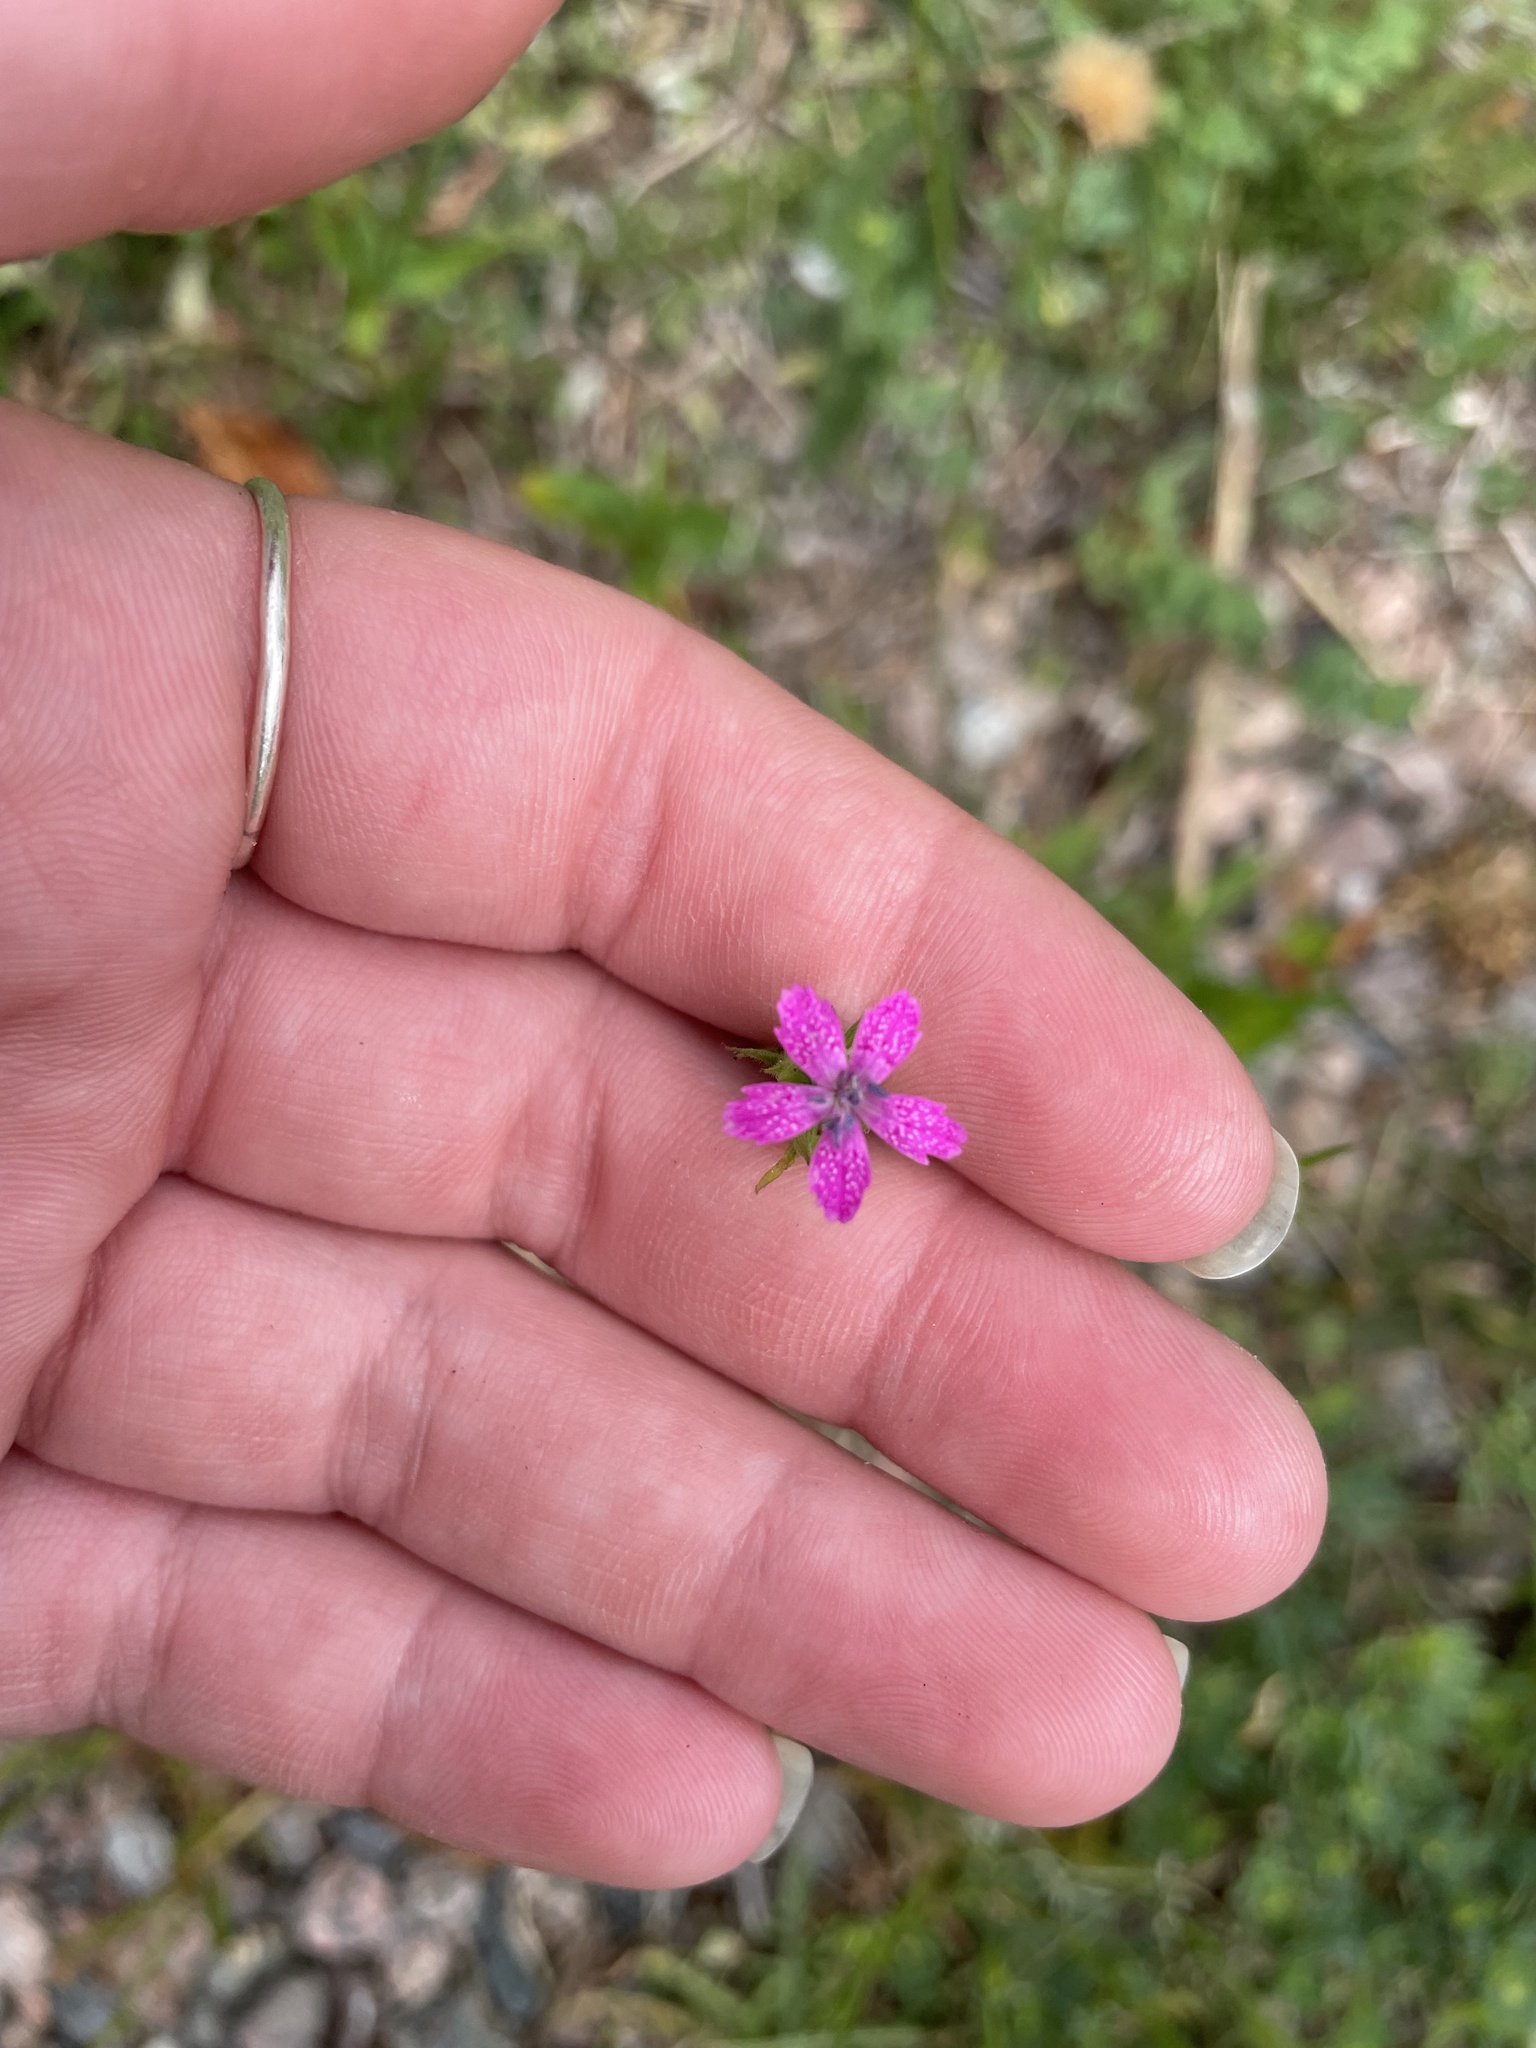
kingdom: Plantae
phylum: Tracheophyta
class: Magnoliopsida
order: Caryophyllales
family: Caryophyllaceae
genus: Dianthus
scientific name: Dianthus armeria
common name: Deptford pink
